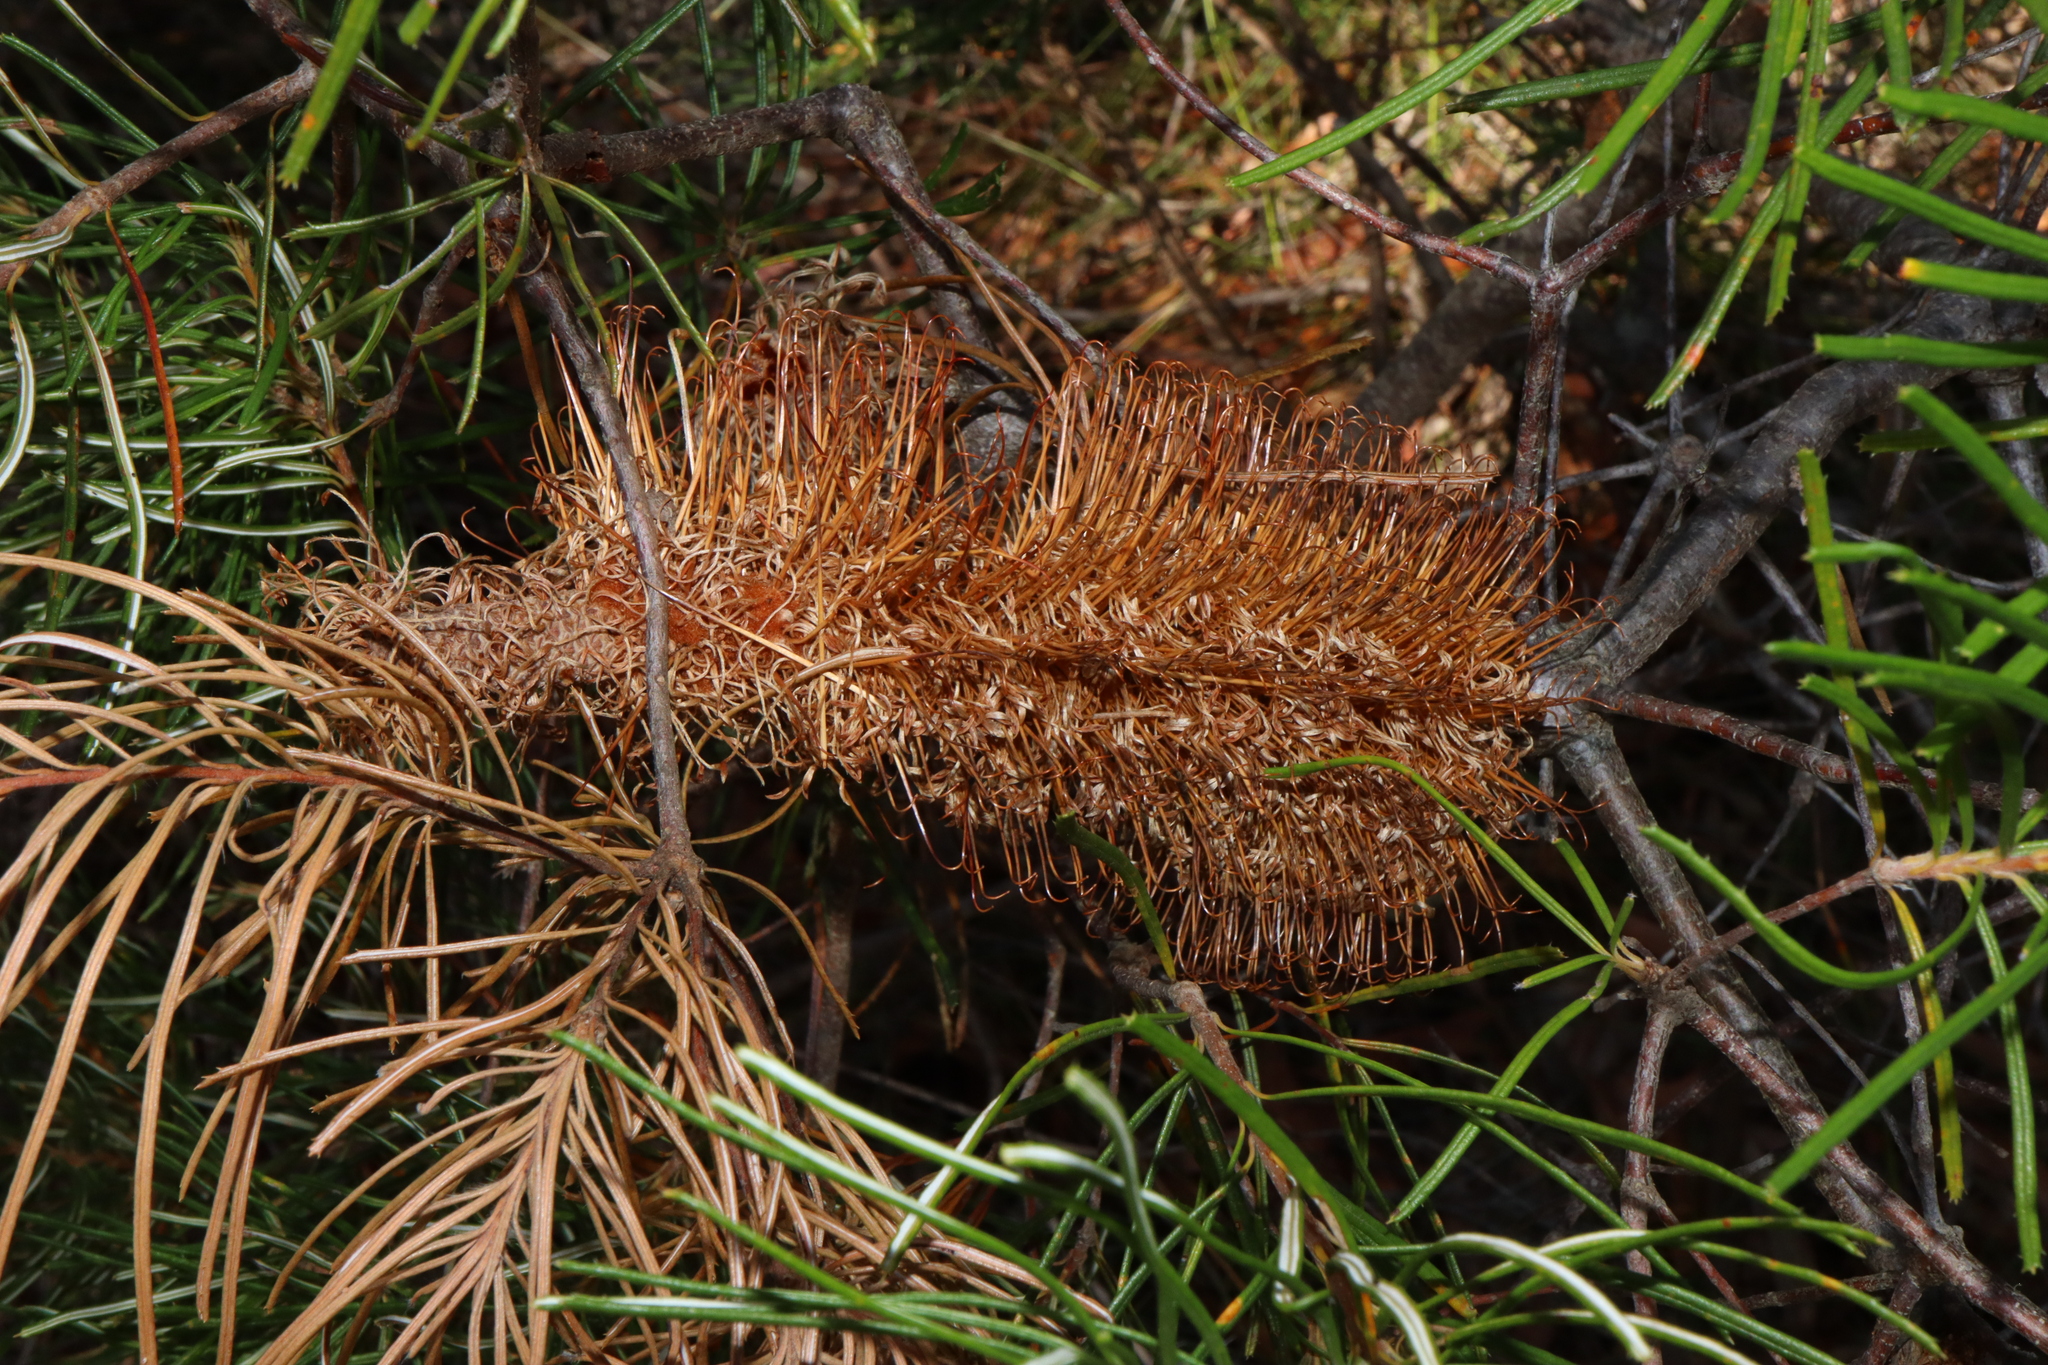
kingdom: Plantae
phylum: Tracheophyta
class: Magnoliopsida
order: Proteales
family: Proteaceae
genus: Banksia
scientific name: Banksia spinulosa
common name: Hairpin banksia
